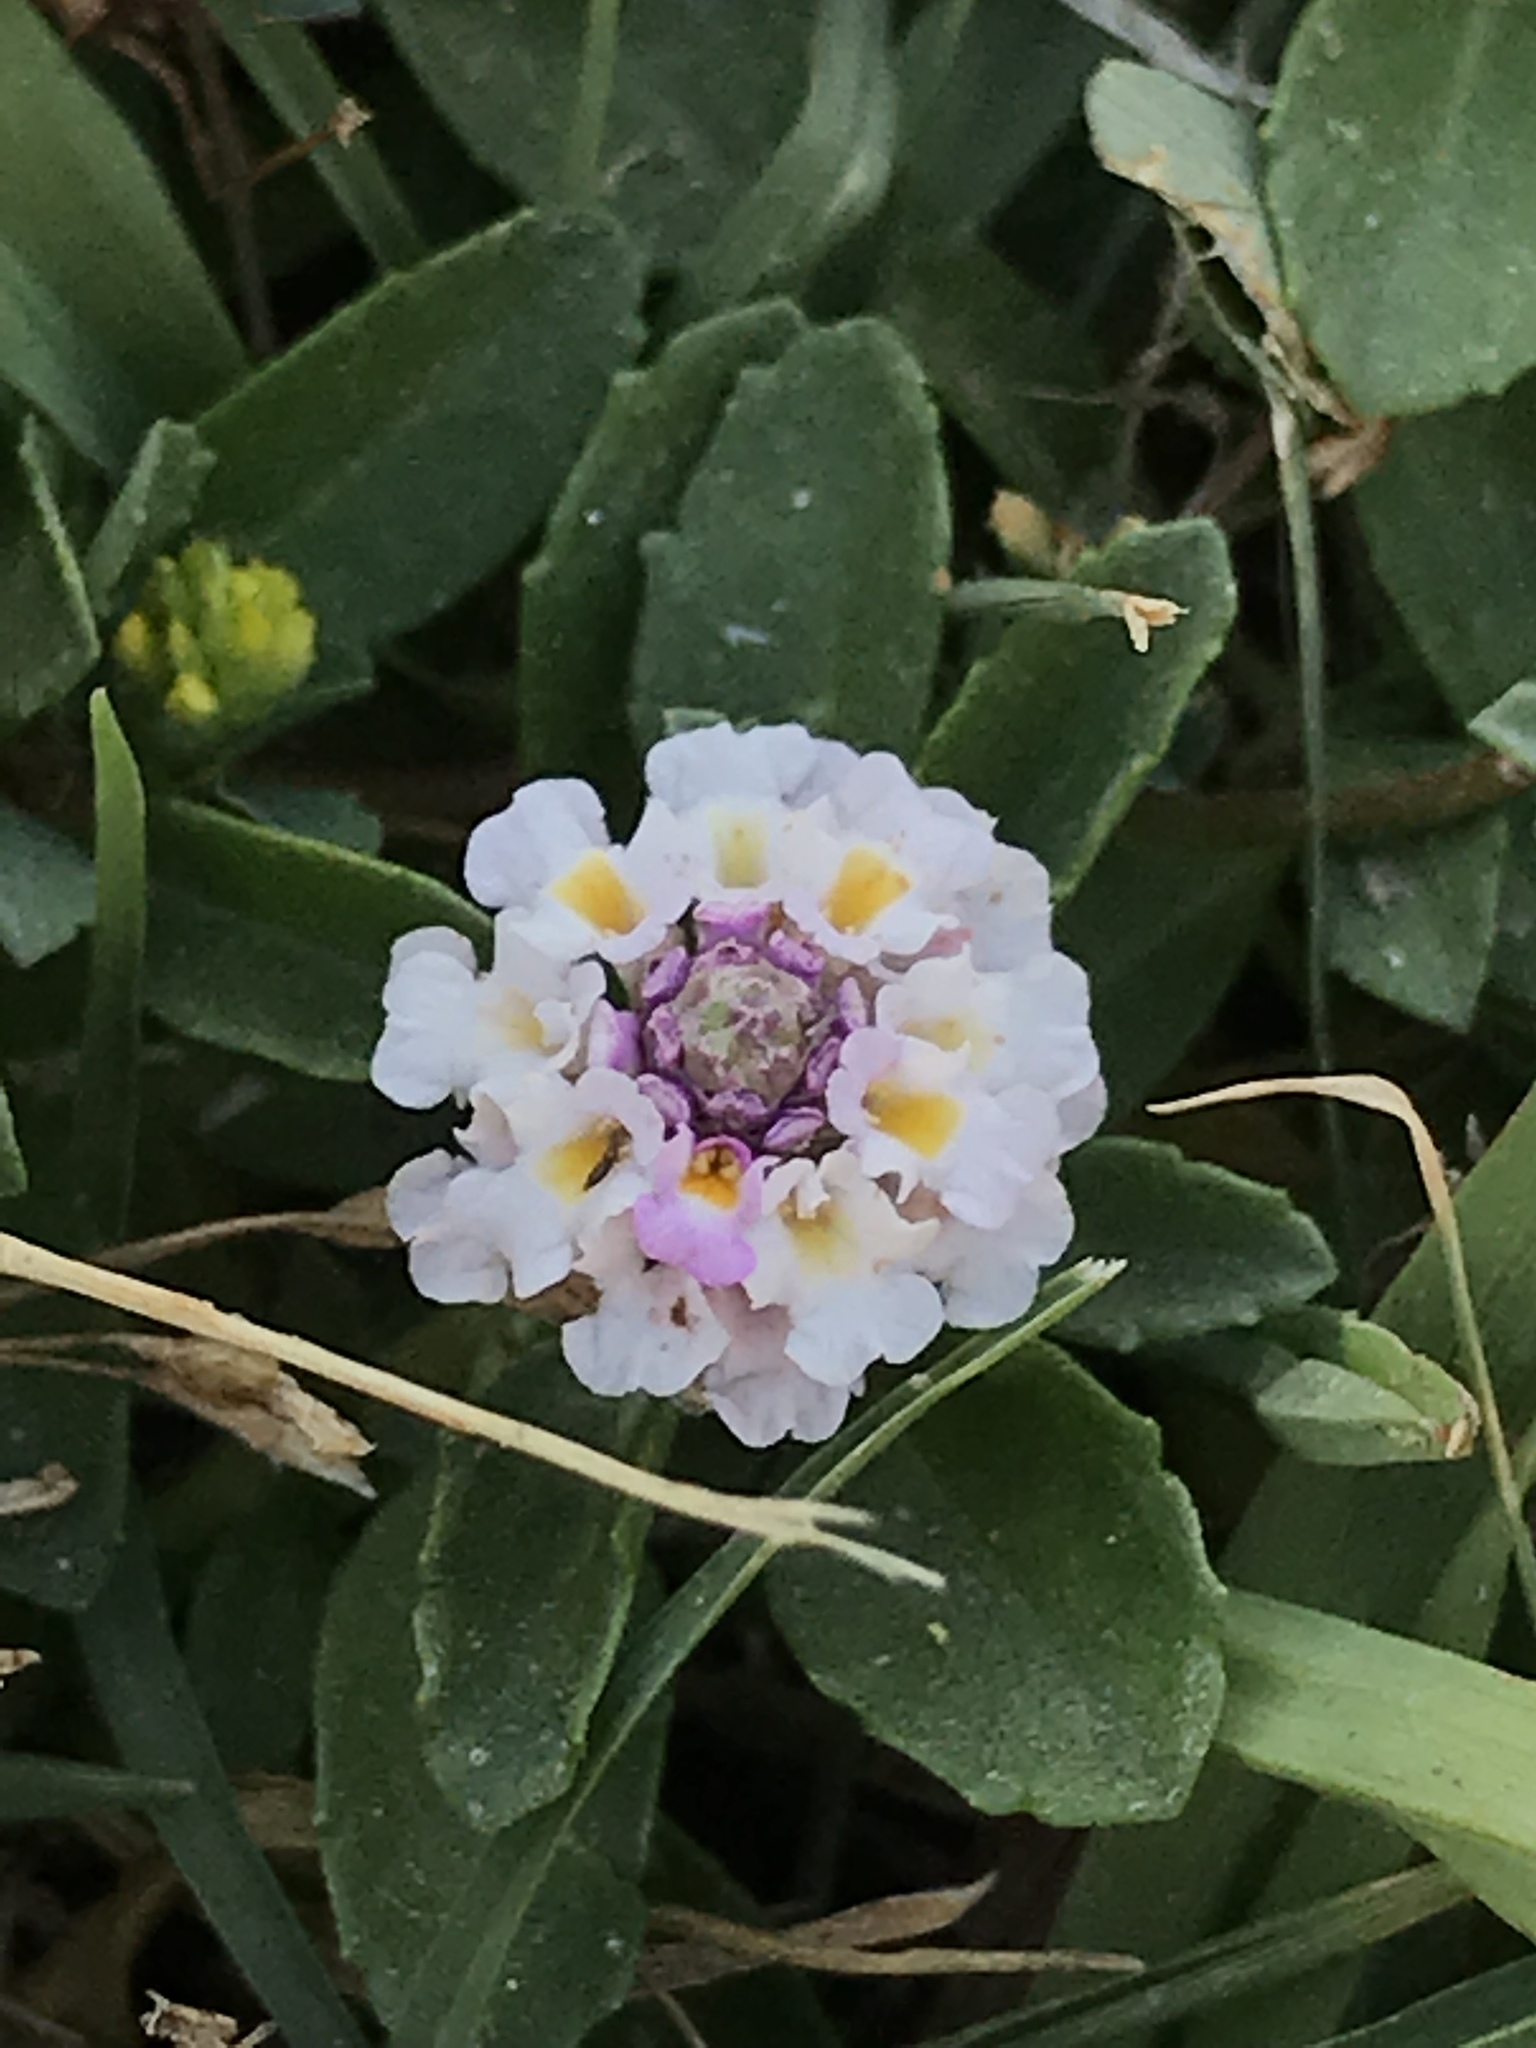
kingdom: Plantae
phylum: Tracheophyta
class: Magnoliopsida
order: Lamiales
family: Verbenaceae
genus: Phyla
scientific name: Phyla nodiflora
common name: Frogfruit
